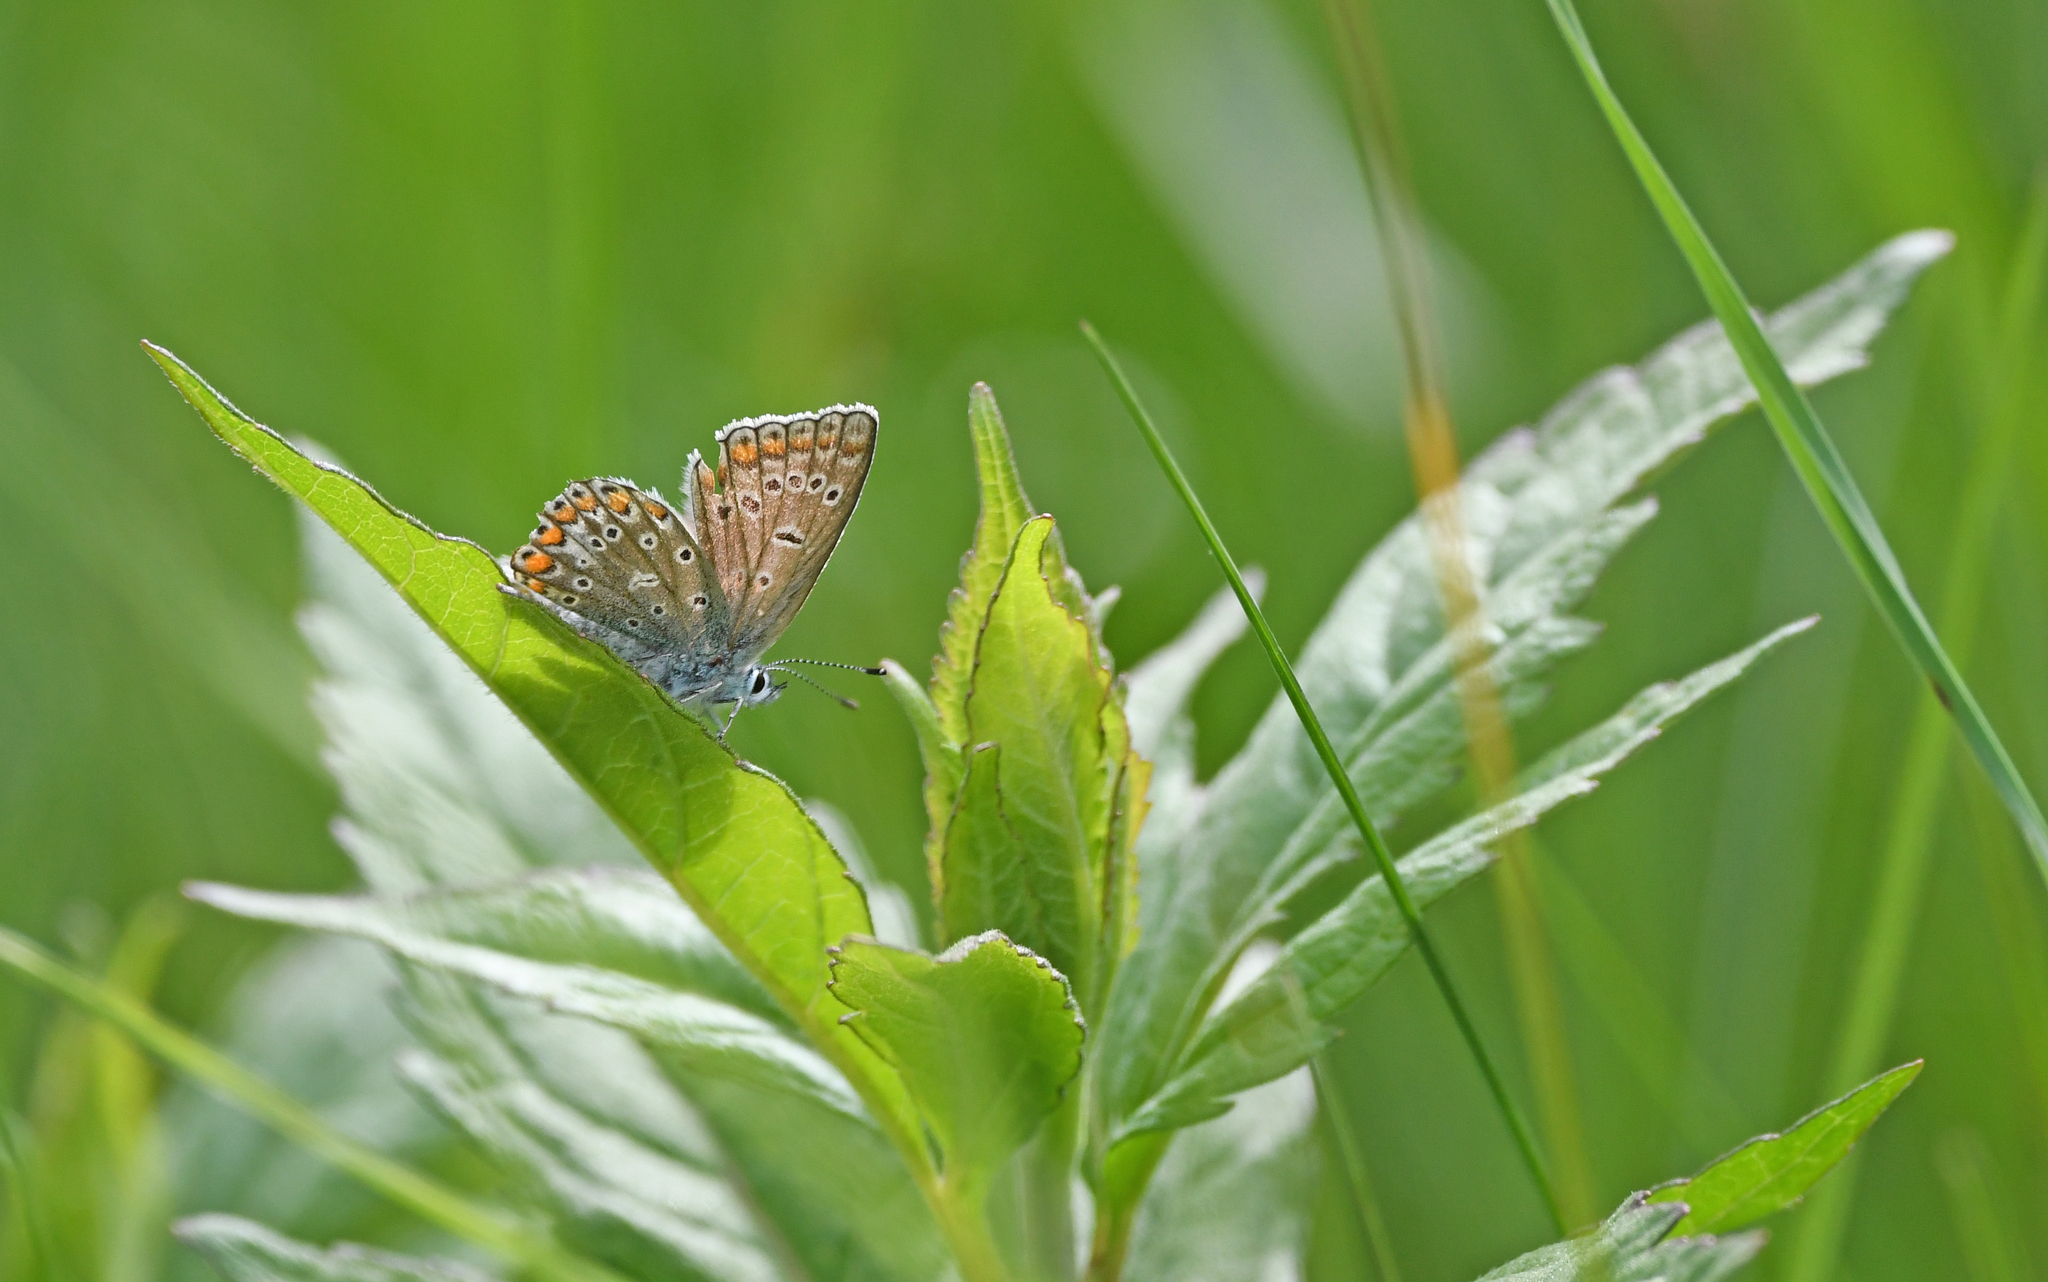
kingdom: Animalia
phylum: Arthropoda
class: Insecta
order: Lepidoptera
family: Lycaenidae
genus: Polyommatus
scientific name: Polyommatus icarus
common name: Common blue
